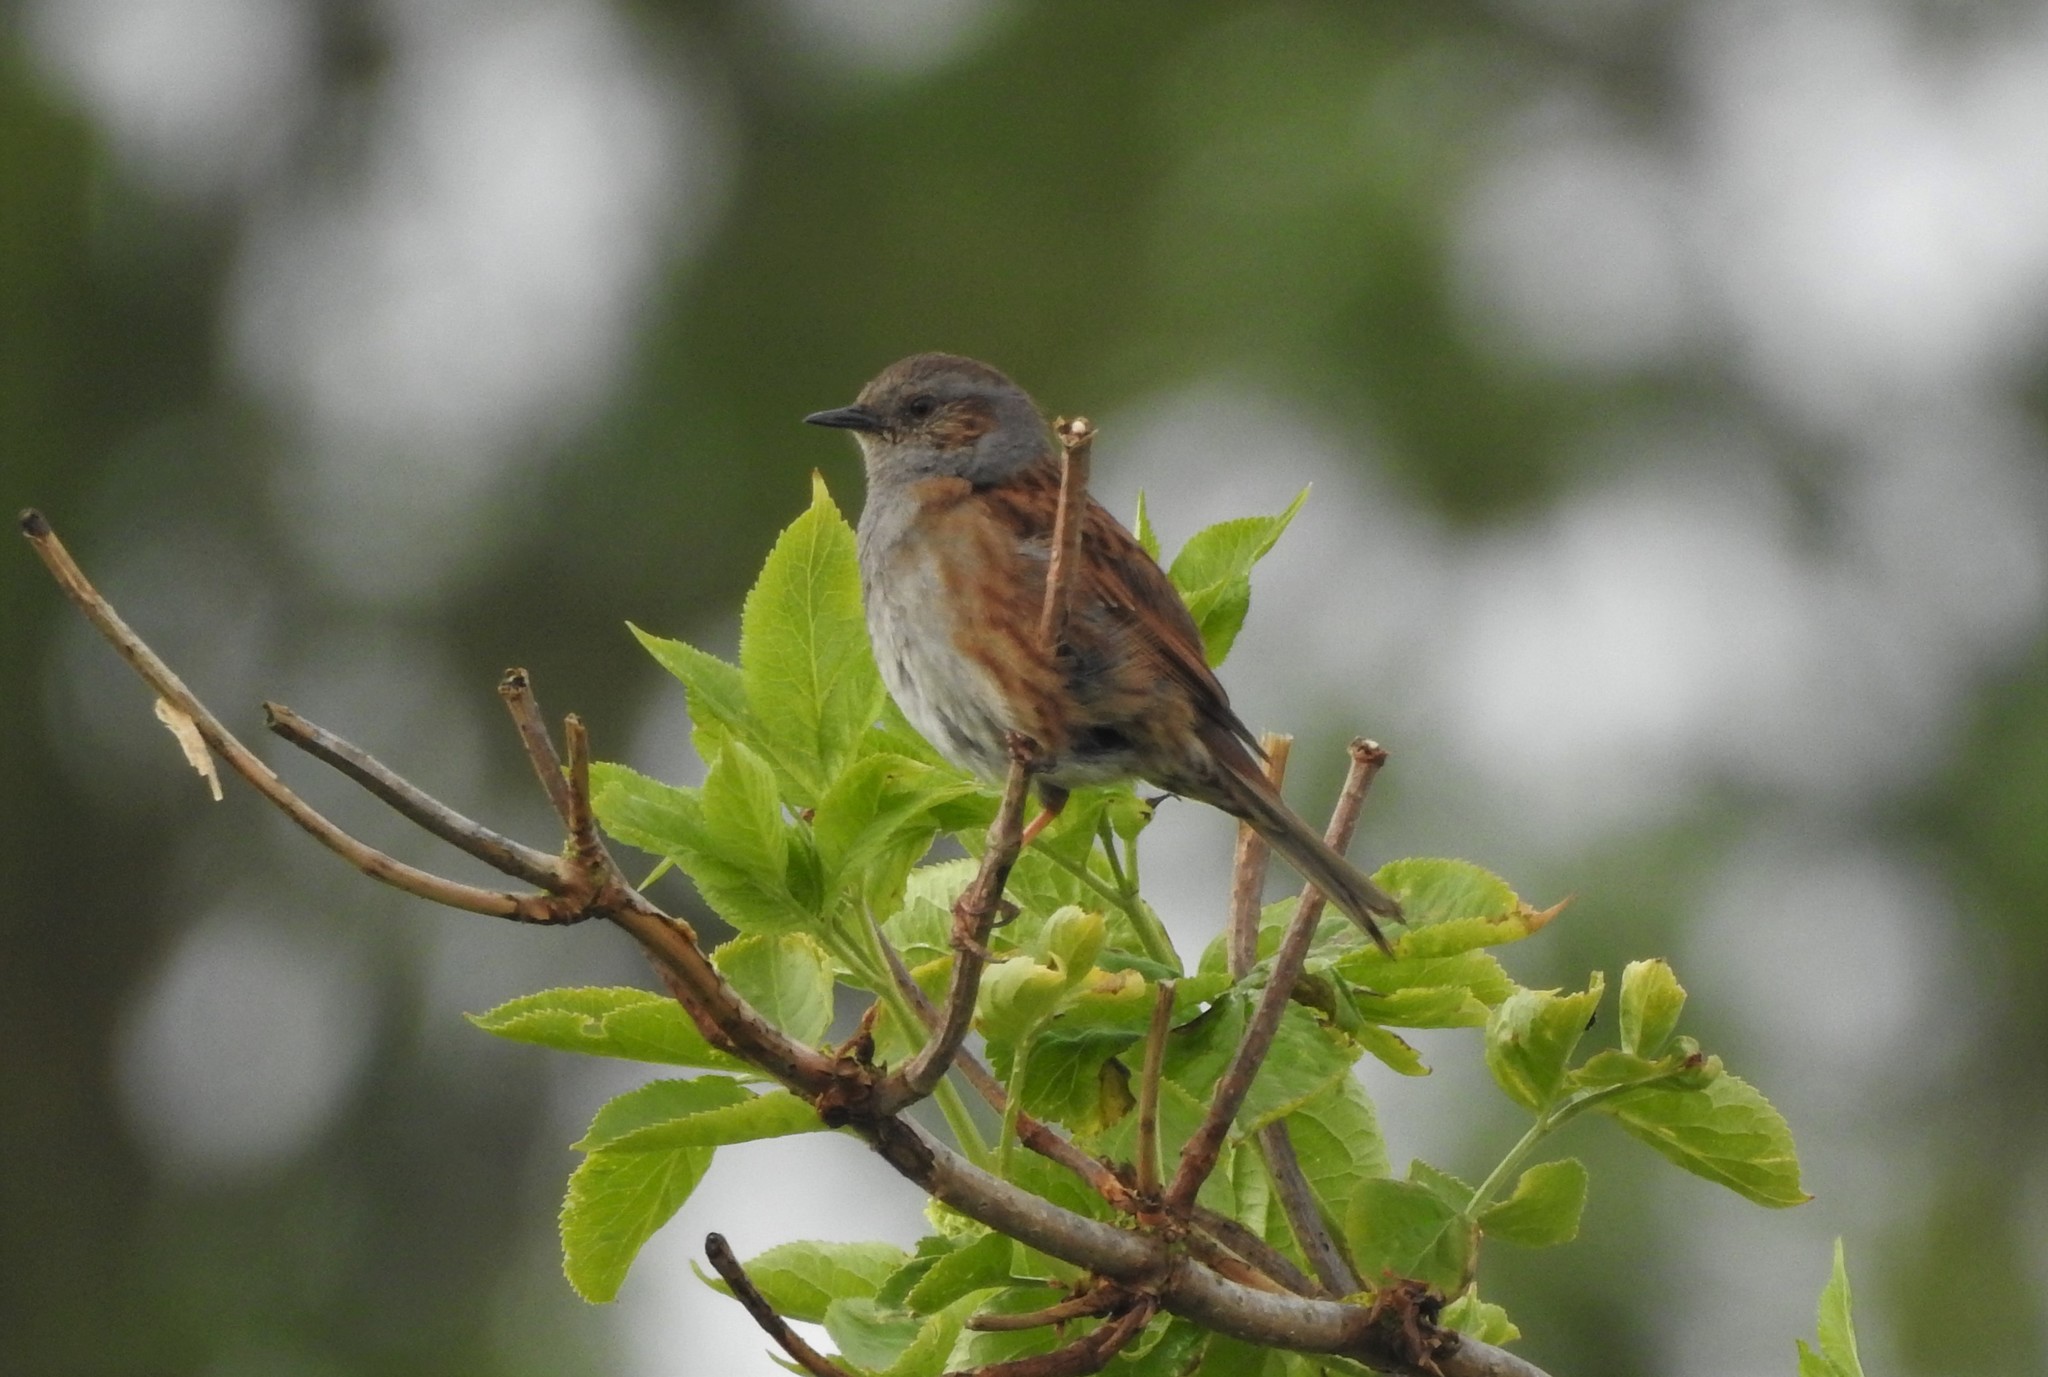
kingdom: Animalia
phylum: Chordata
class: Aves
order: Passeriformes
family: Prunellidae
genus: Prunella
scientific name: Prunella modularis
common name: Dunnock
